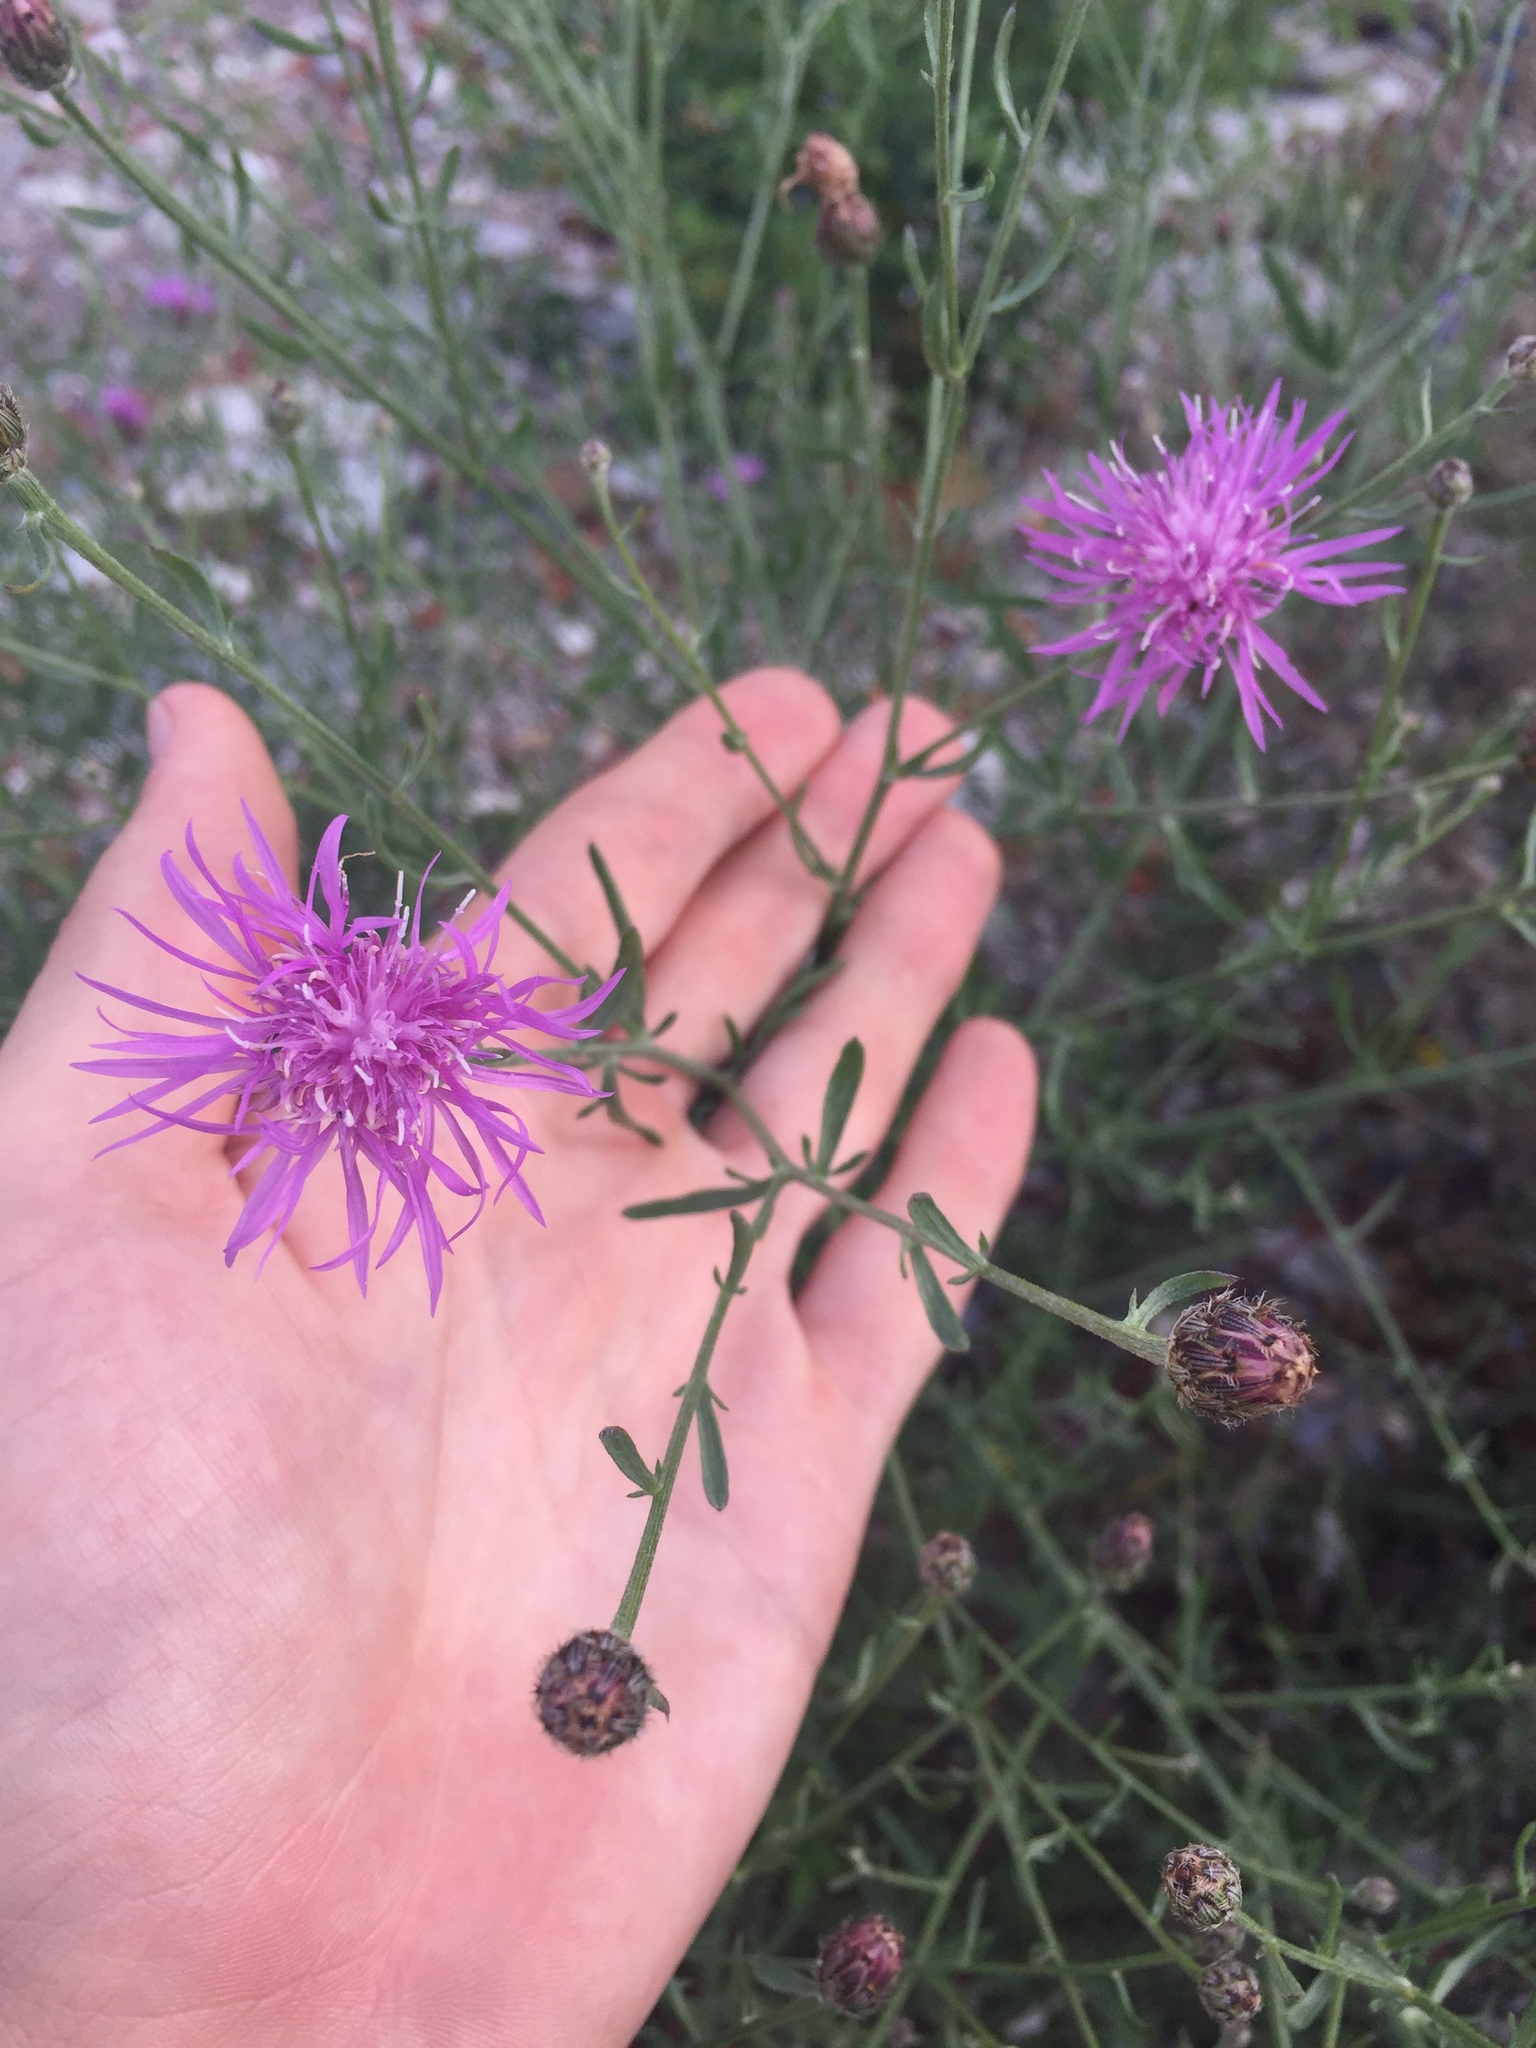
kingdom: Plantae
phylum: Tracheophyta
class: Magnoliopsida
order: Asterales
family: Asteraceae
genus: Centaurea
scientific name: Centaurea stoebe
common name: Spotted knapweed
